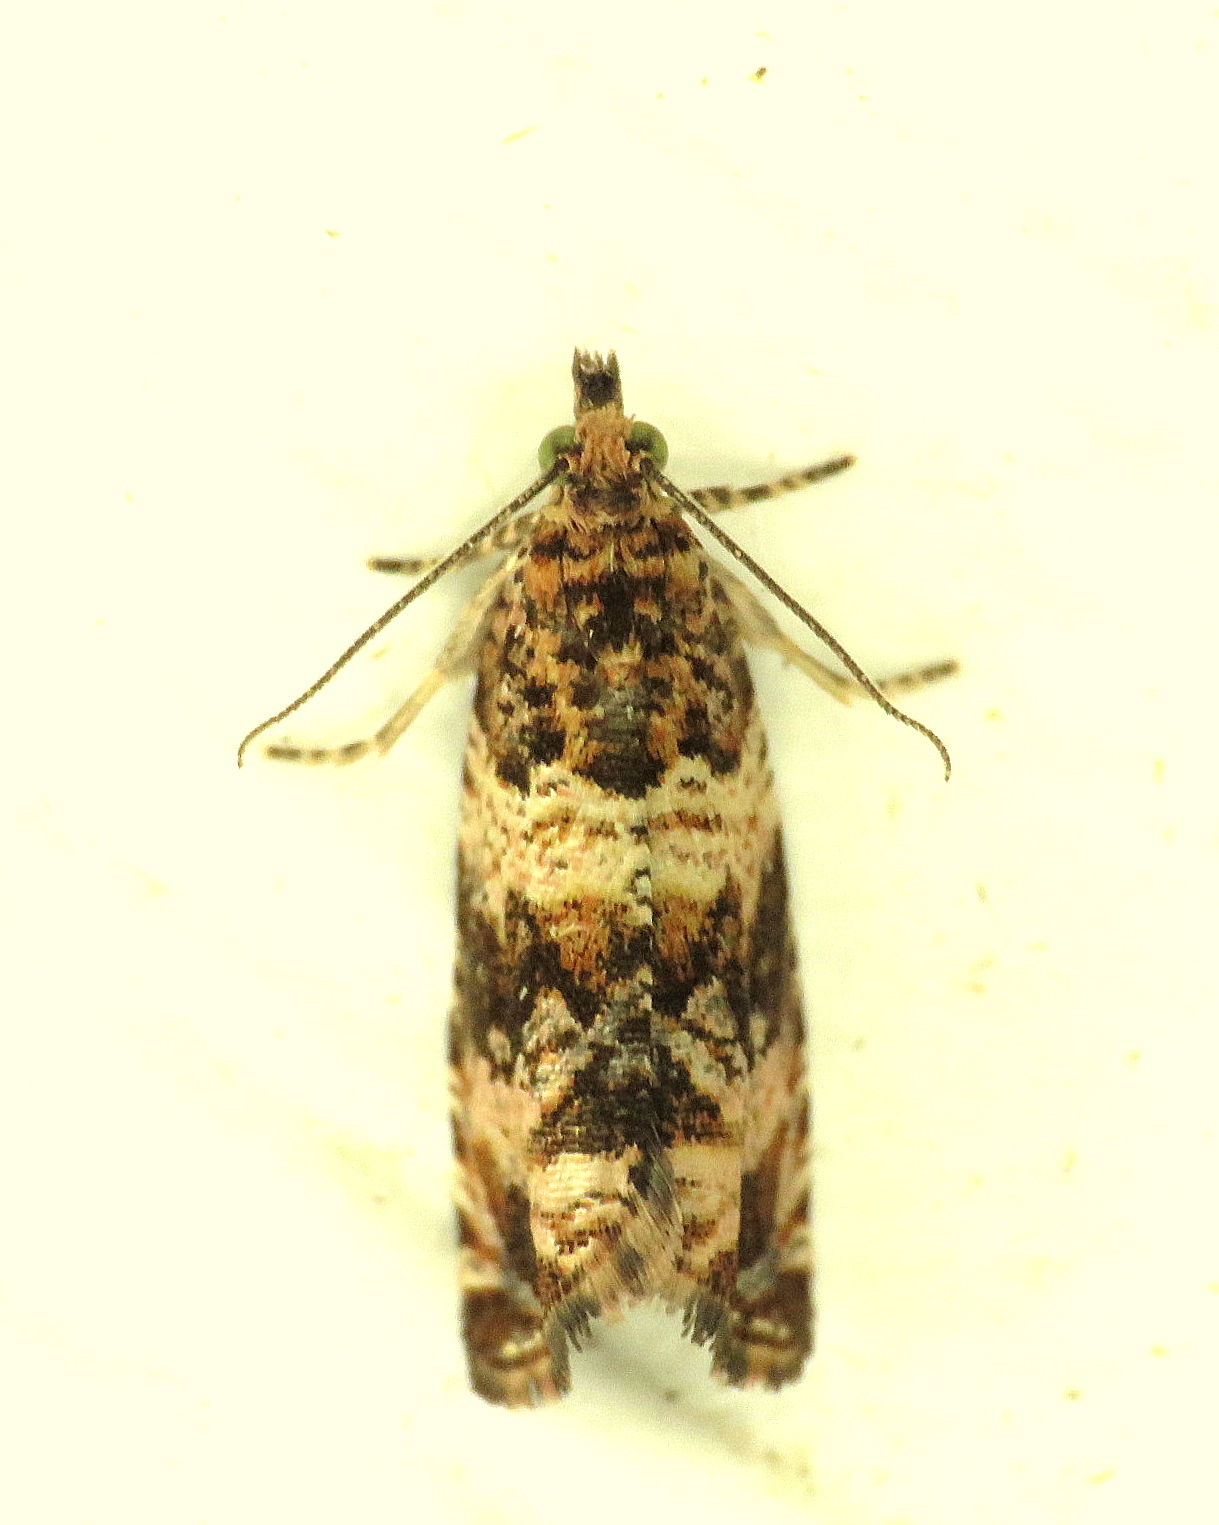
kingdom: Animalia
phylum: Arthropoda
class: Insecta
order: Lepidoptera
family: Tortricidae
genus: Celypha
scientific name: Celypha cespitana
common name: Thyme marble
